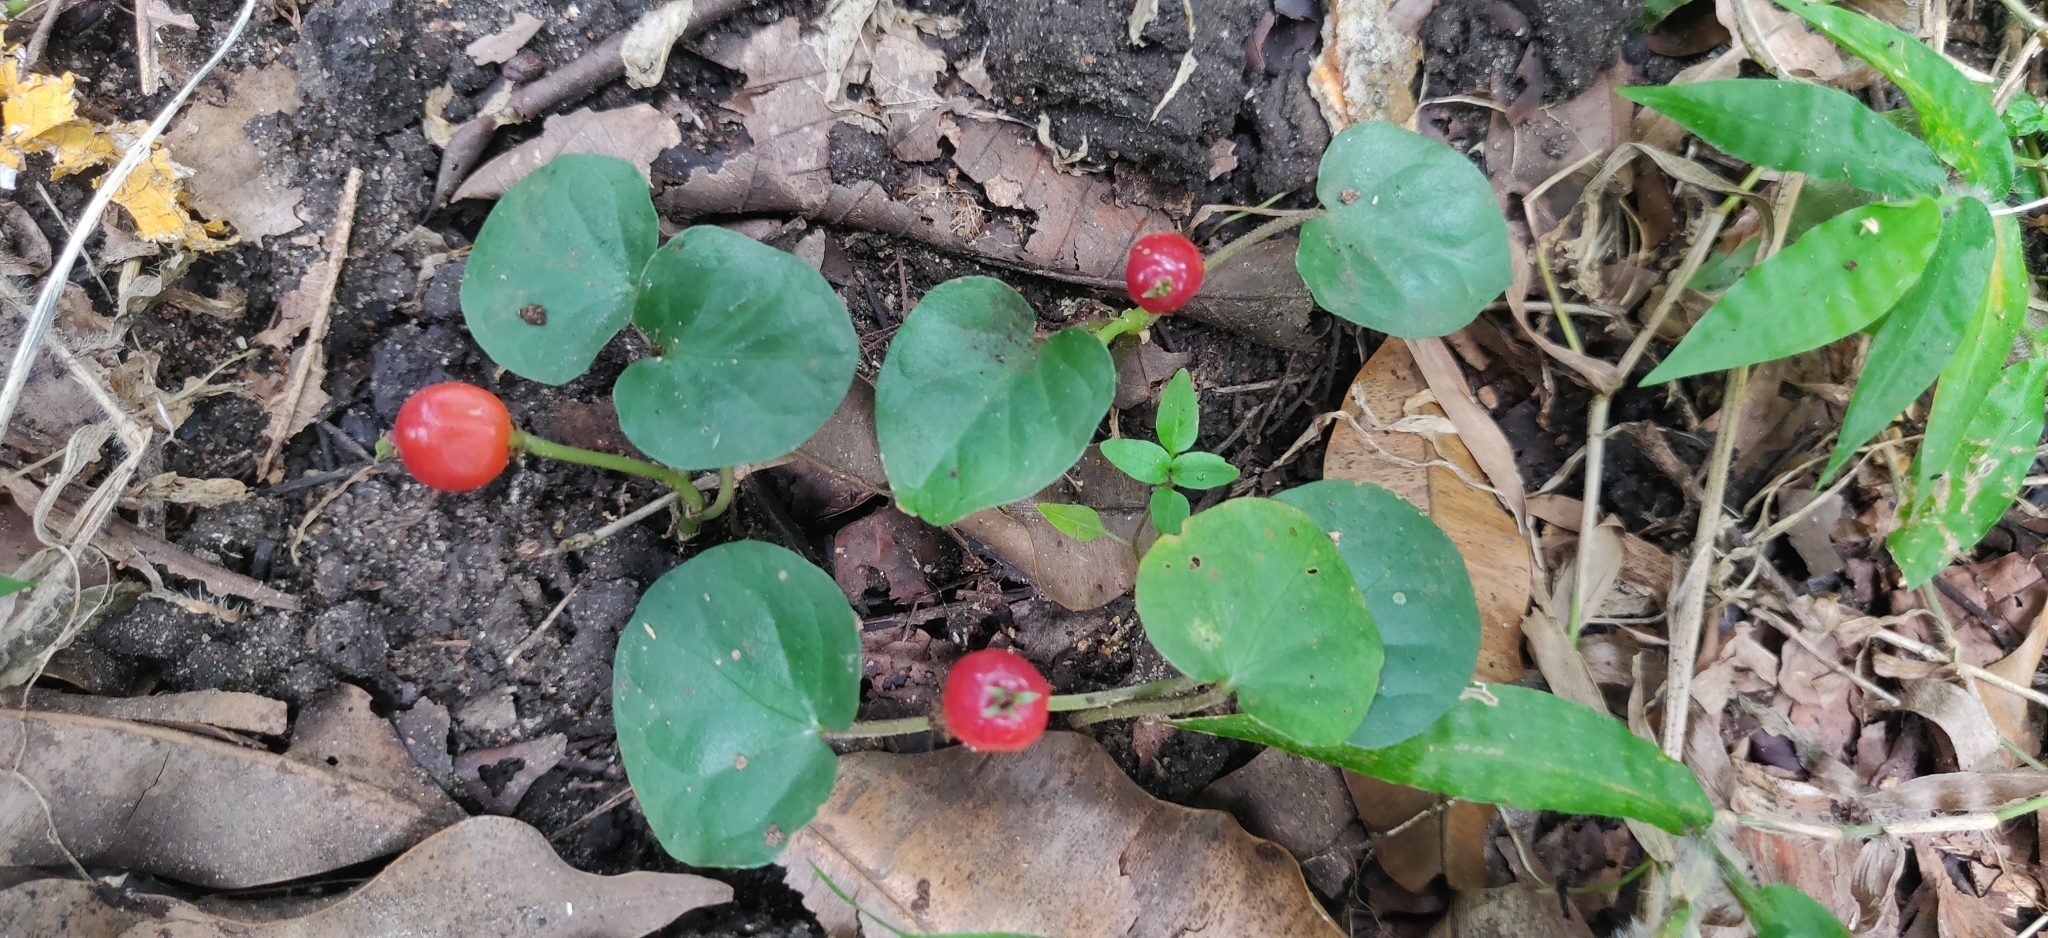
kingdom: Plantae
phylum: Tracheophyta
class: Magnoliopsida
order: Gentianales
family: Rubiaceae
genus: Geophila
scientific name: Geophila herbacea
